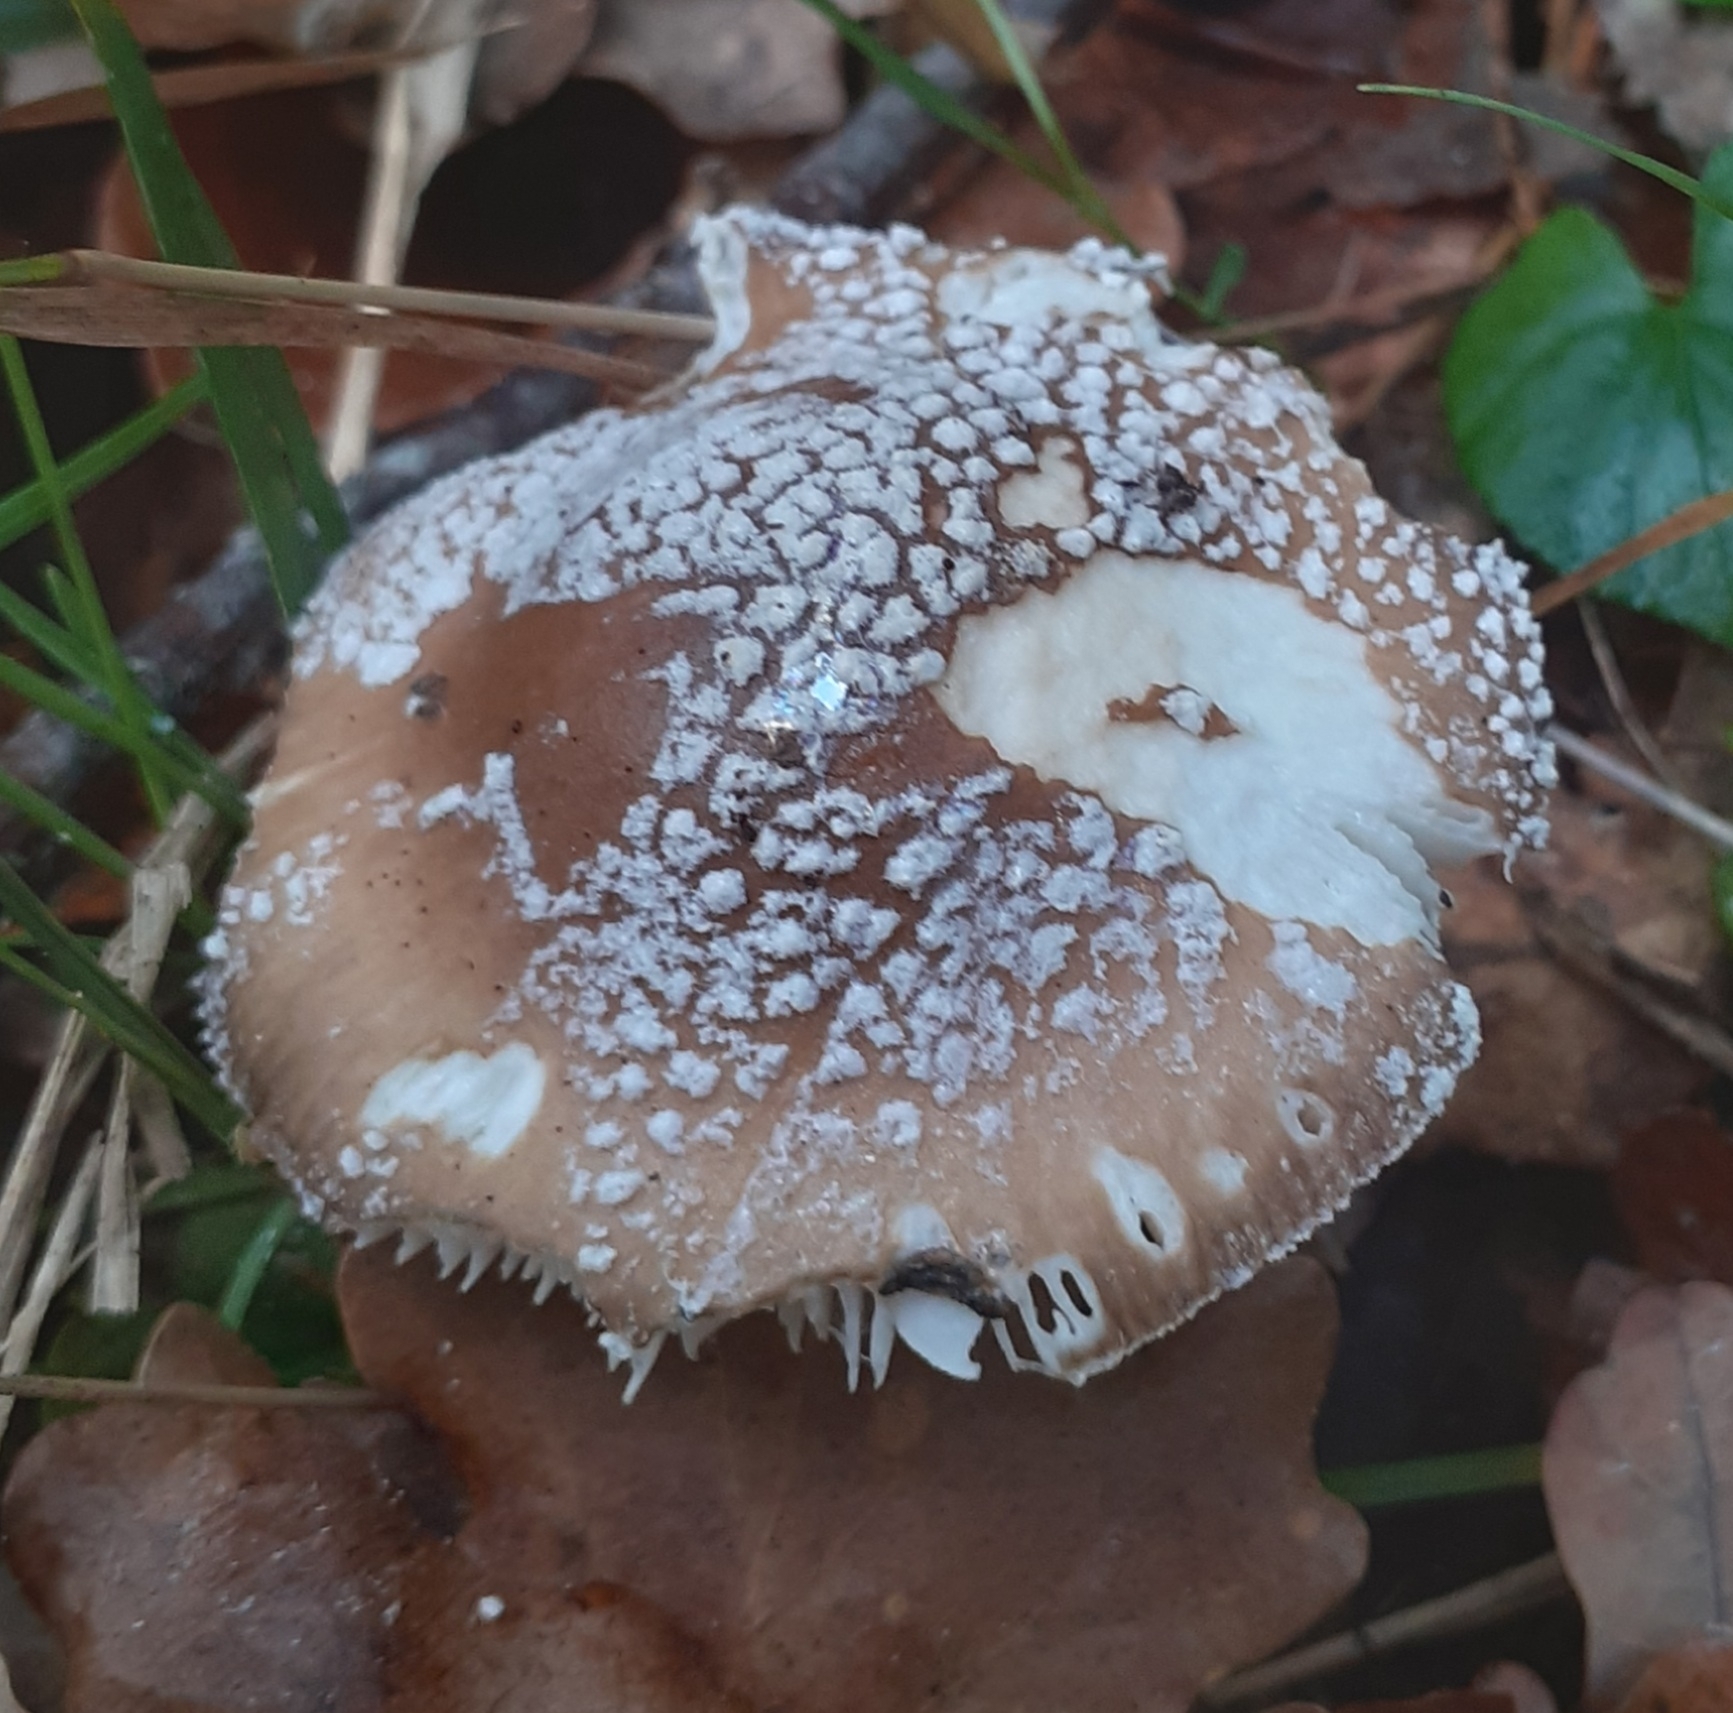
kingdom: Fungi
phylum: Basidiomycota
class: Agaricomycetes
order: Agaricales
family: Amanitaceae
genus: Amanita
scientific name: Amanita pantherina
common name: Panthercap
